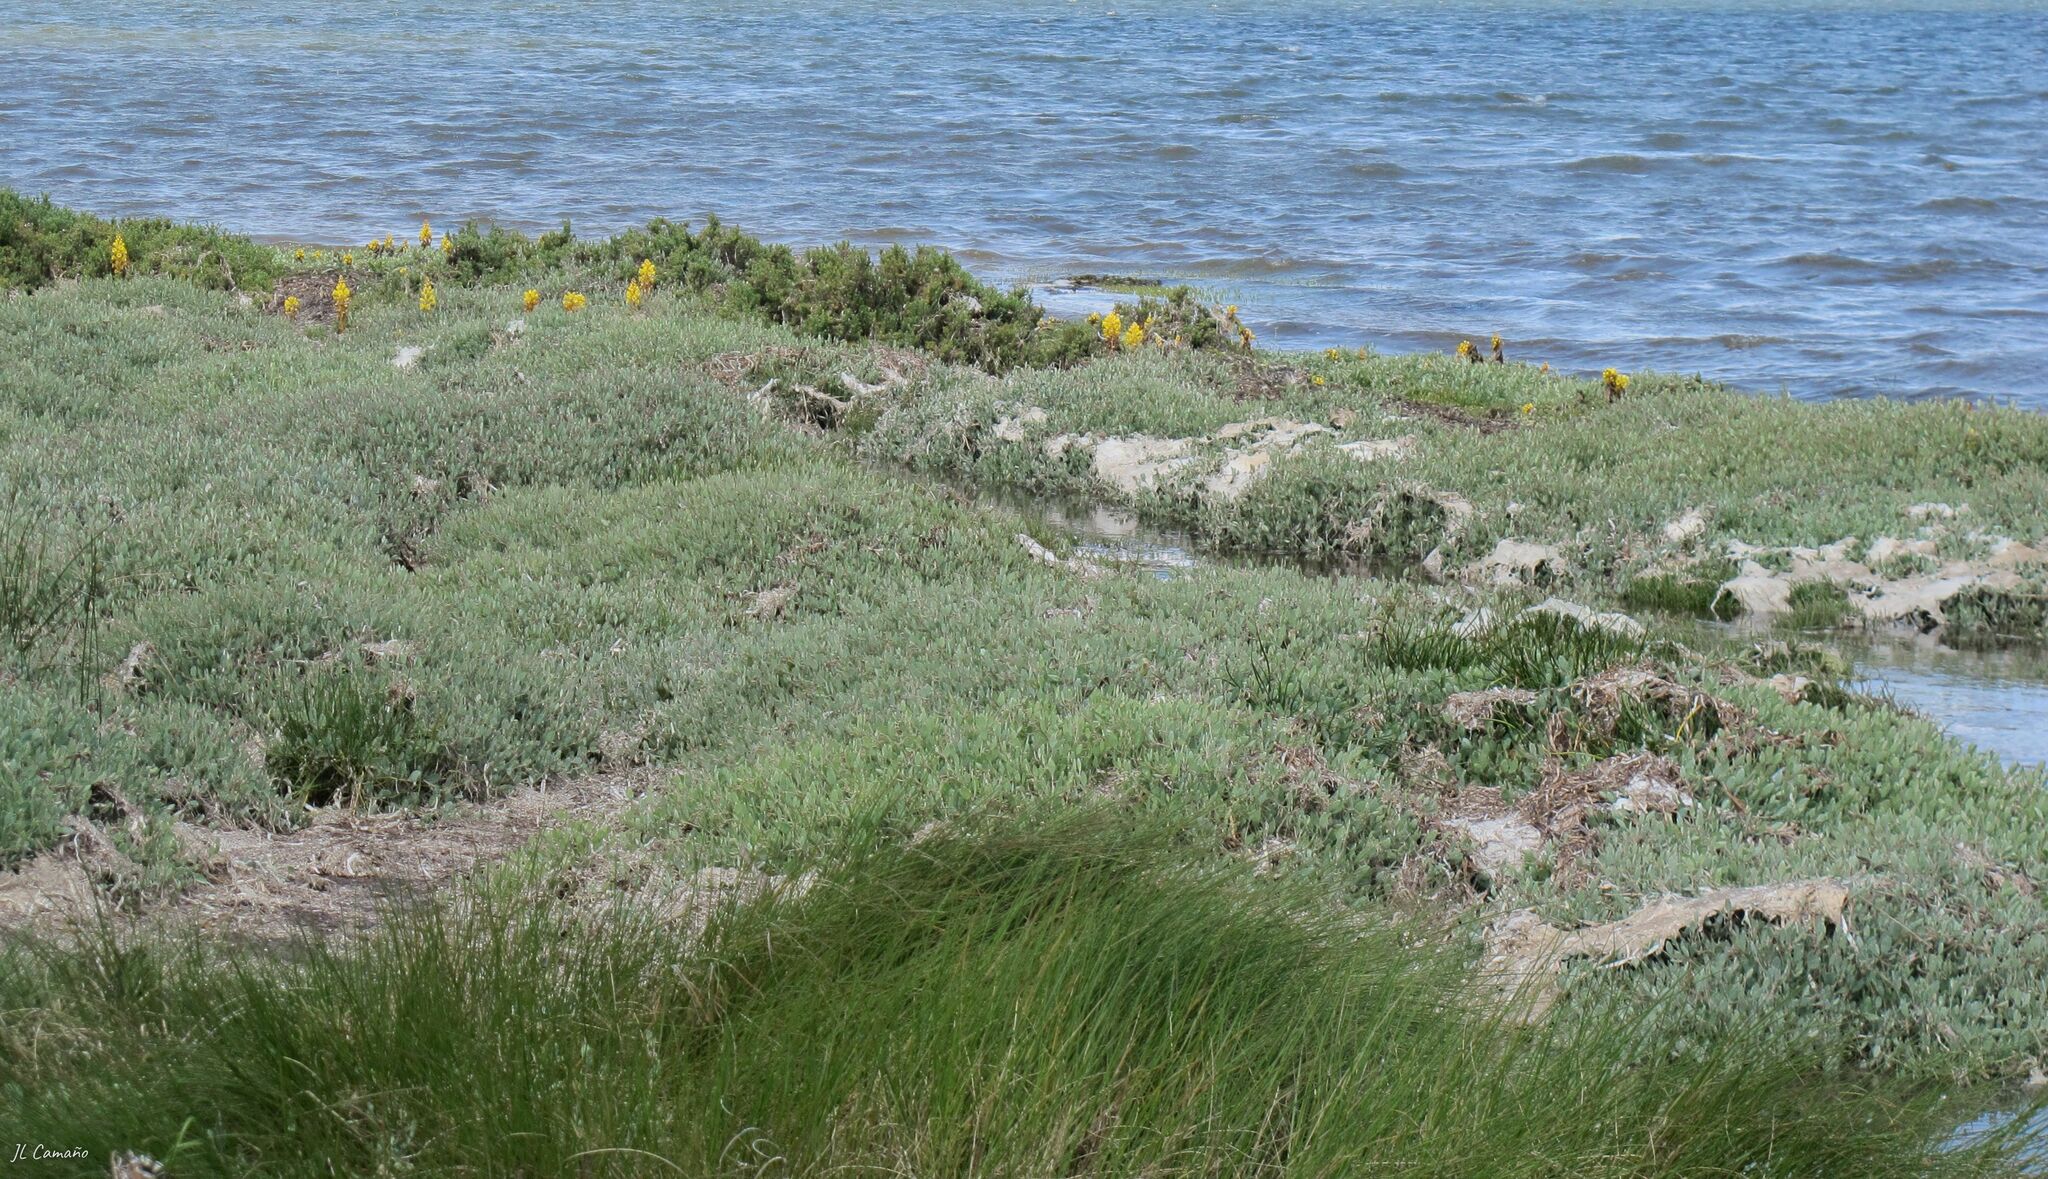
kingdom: Plantae
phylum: Tracheophyta
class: Magnoliopsida
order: Lamiales
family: Orobanchaceae
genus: Cistanche
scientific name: Cistanche phelypaea
